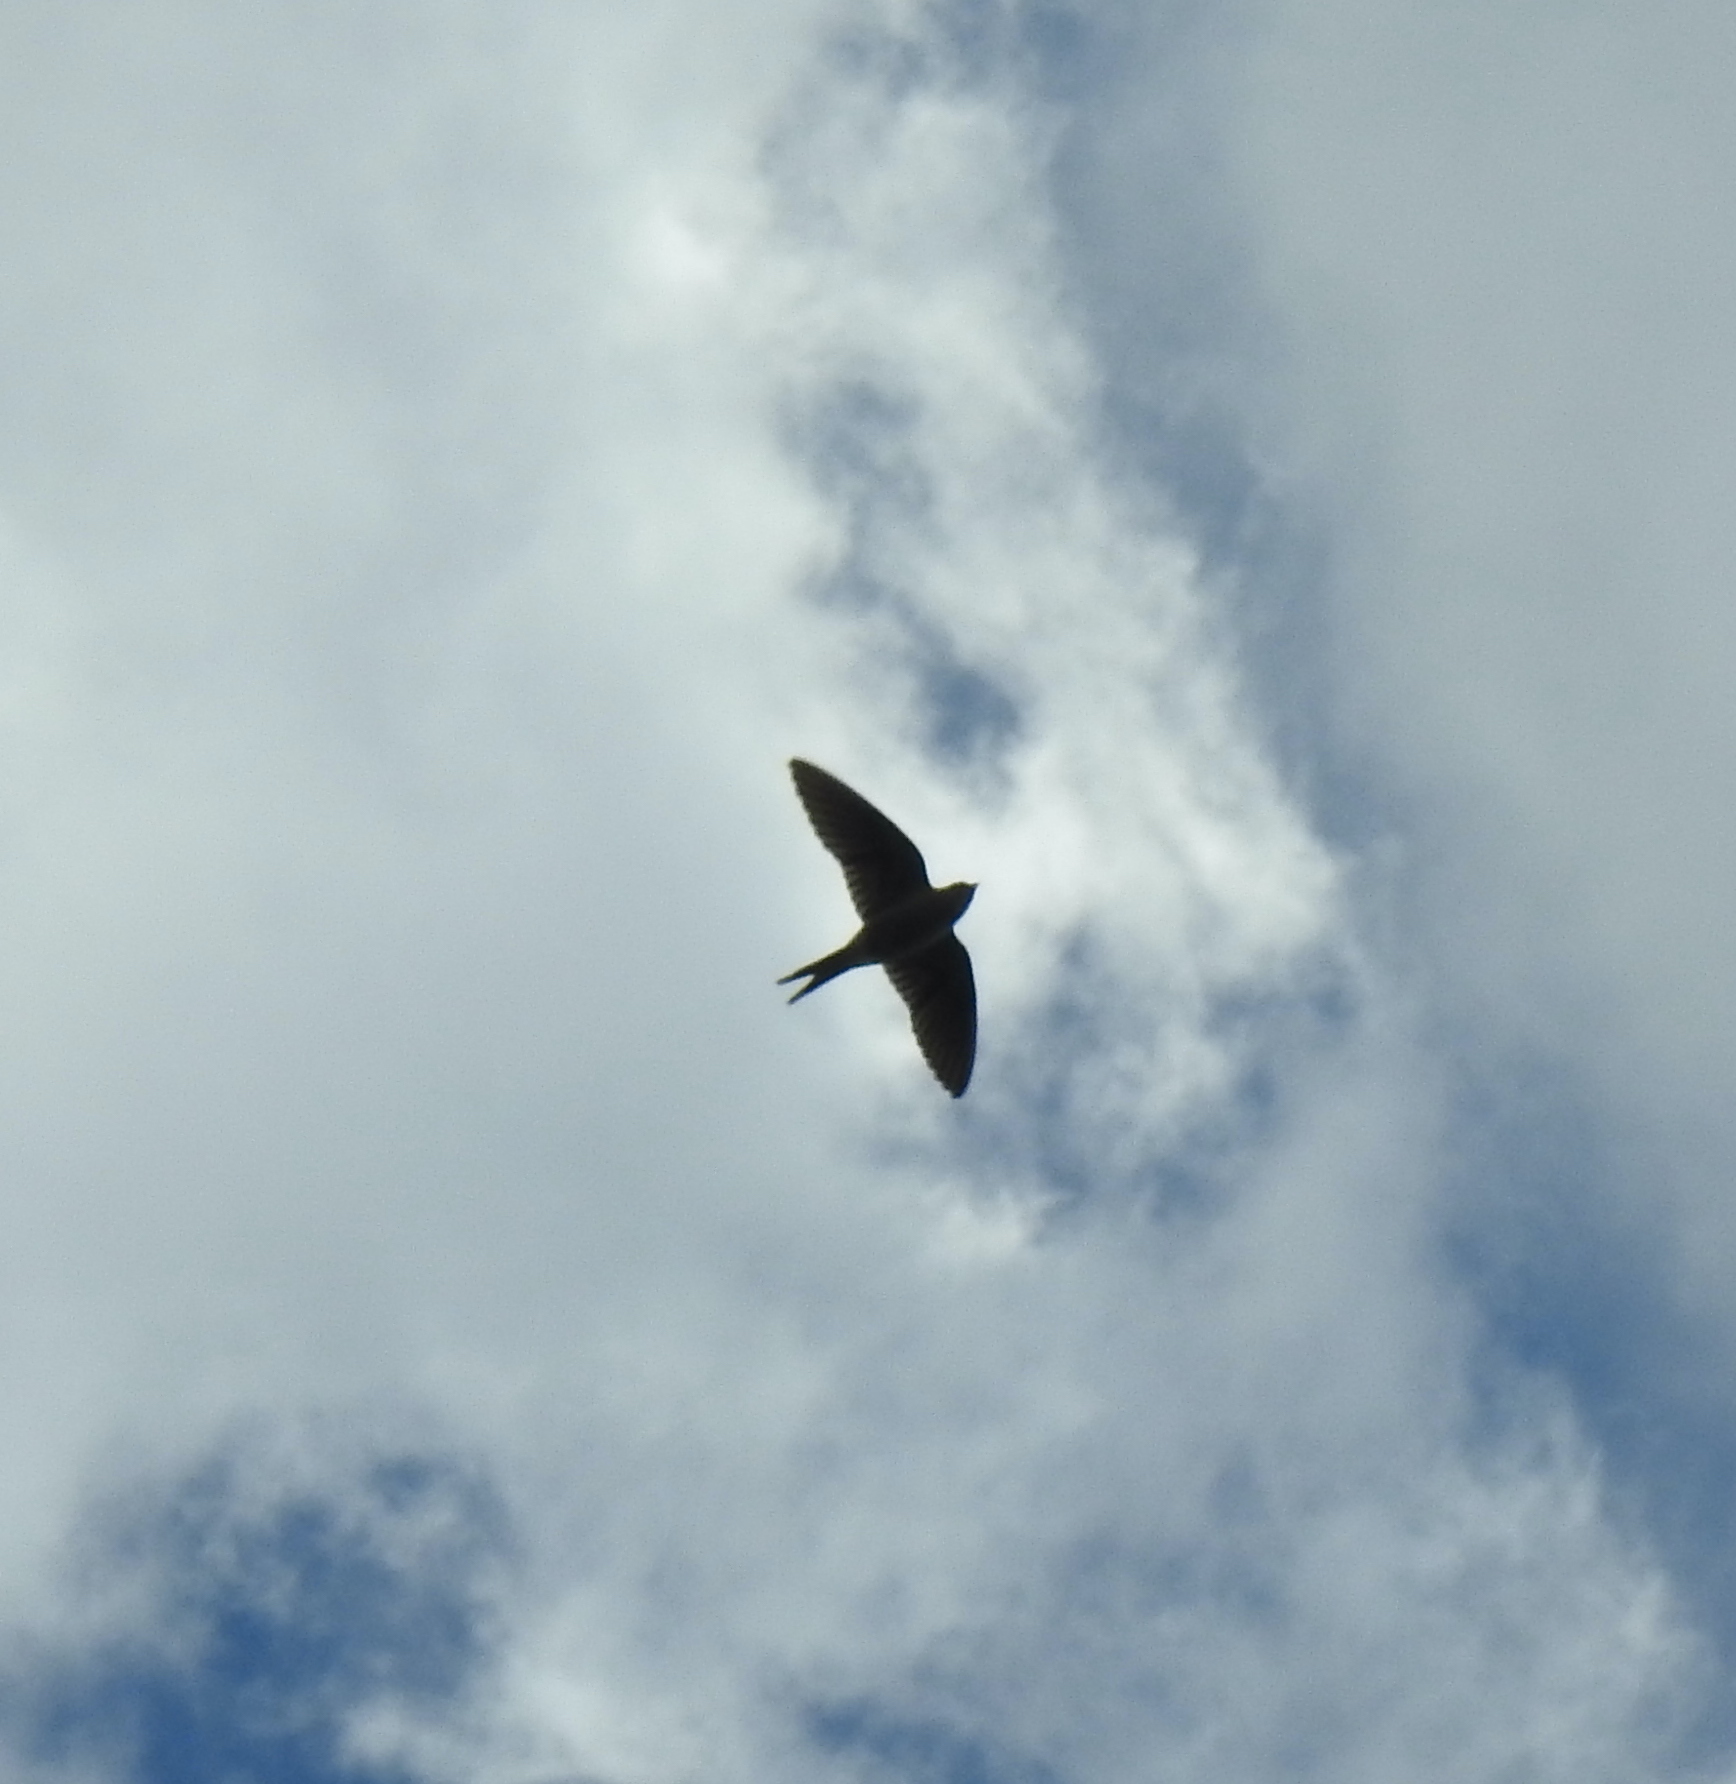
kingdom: Animalia
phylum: Chordata
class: Aves
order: Passeriformes
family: Hirundinidae
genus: Cecropis
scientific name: Cecropis cucullata
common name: Greater striped-swallow
